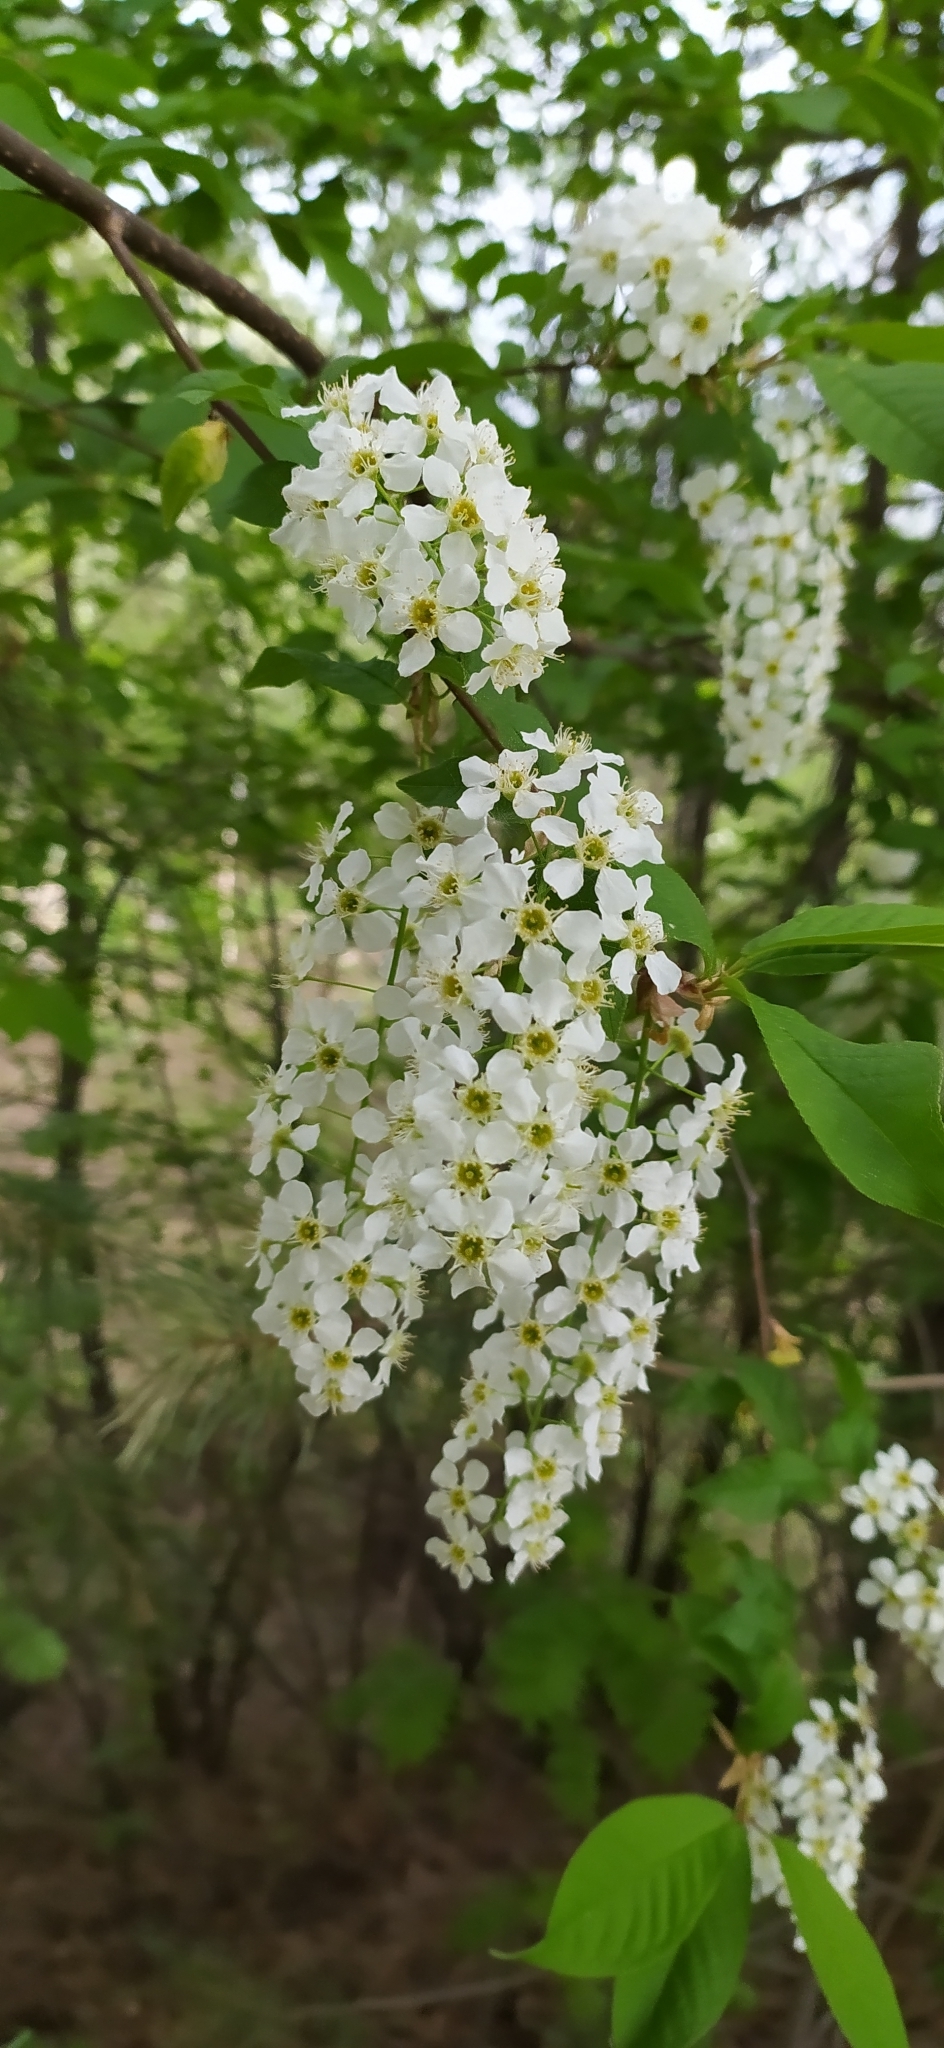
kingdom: Plantae
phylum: Tracheophyta
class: Magnoliopsida
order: Rosales
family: Rosaceae
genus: Prunus
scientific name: Prunus padus
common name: Bird cherry
